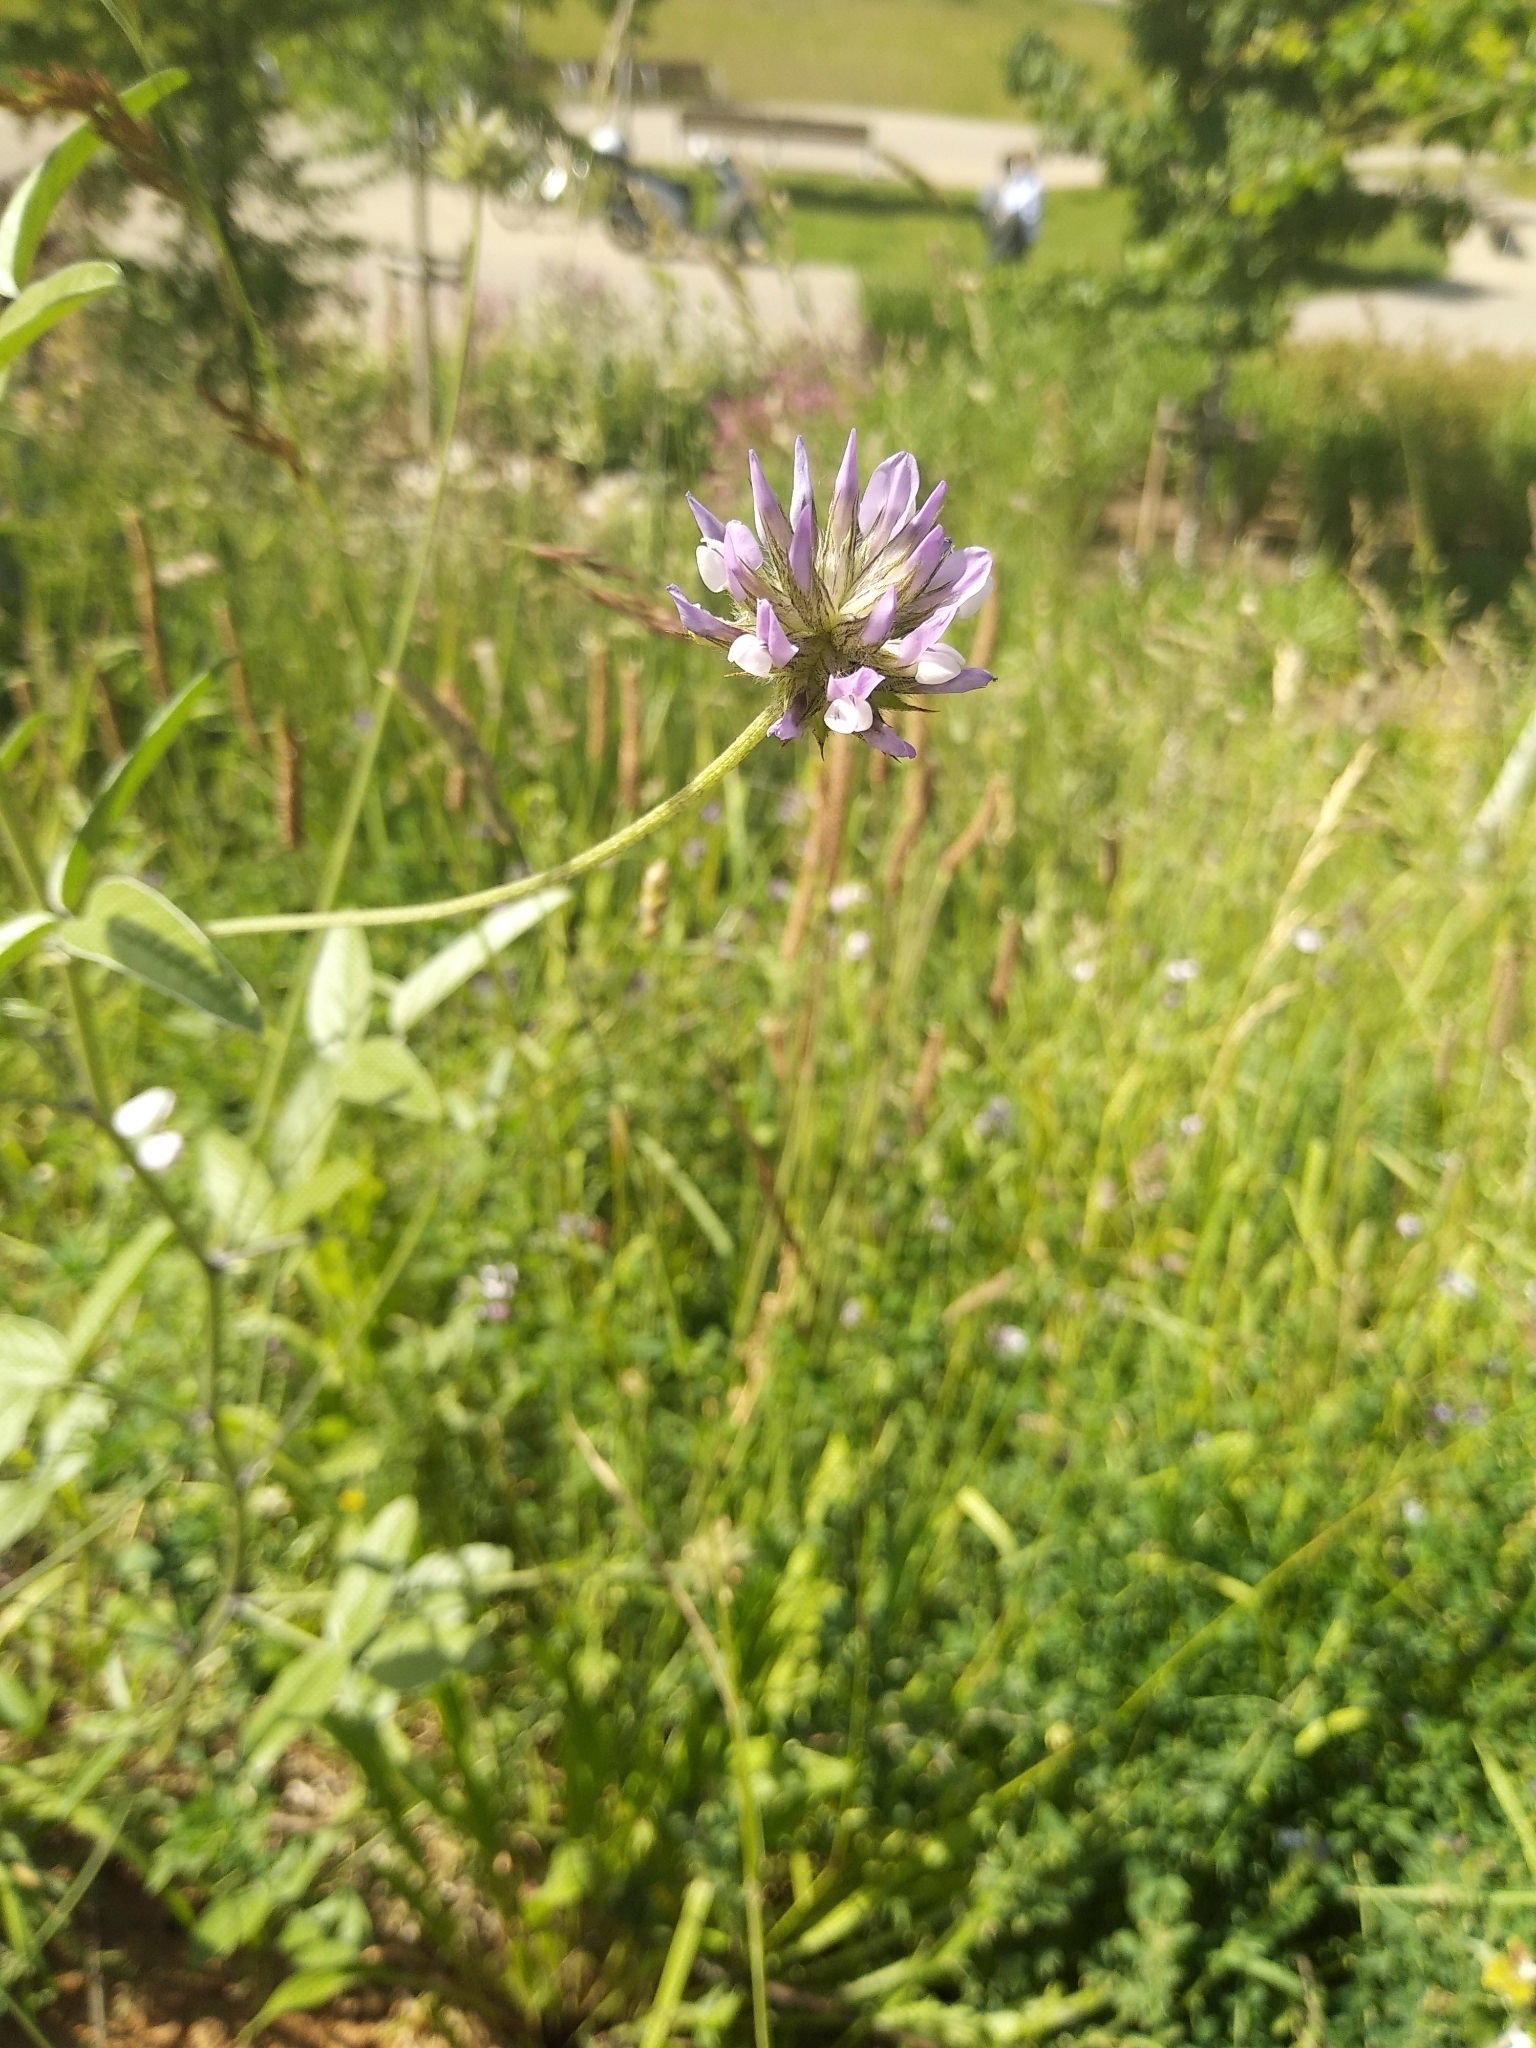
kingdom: Plantae
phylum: Tracheophyta
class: Magnoliopsida
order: Fabales
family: Fabaceae
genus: Bituminaria
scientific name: Bituminaria bituminosa
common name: Arabian pea
